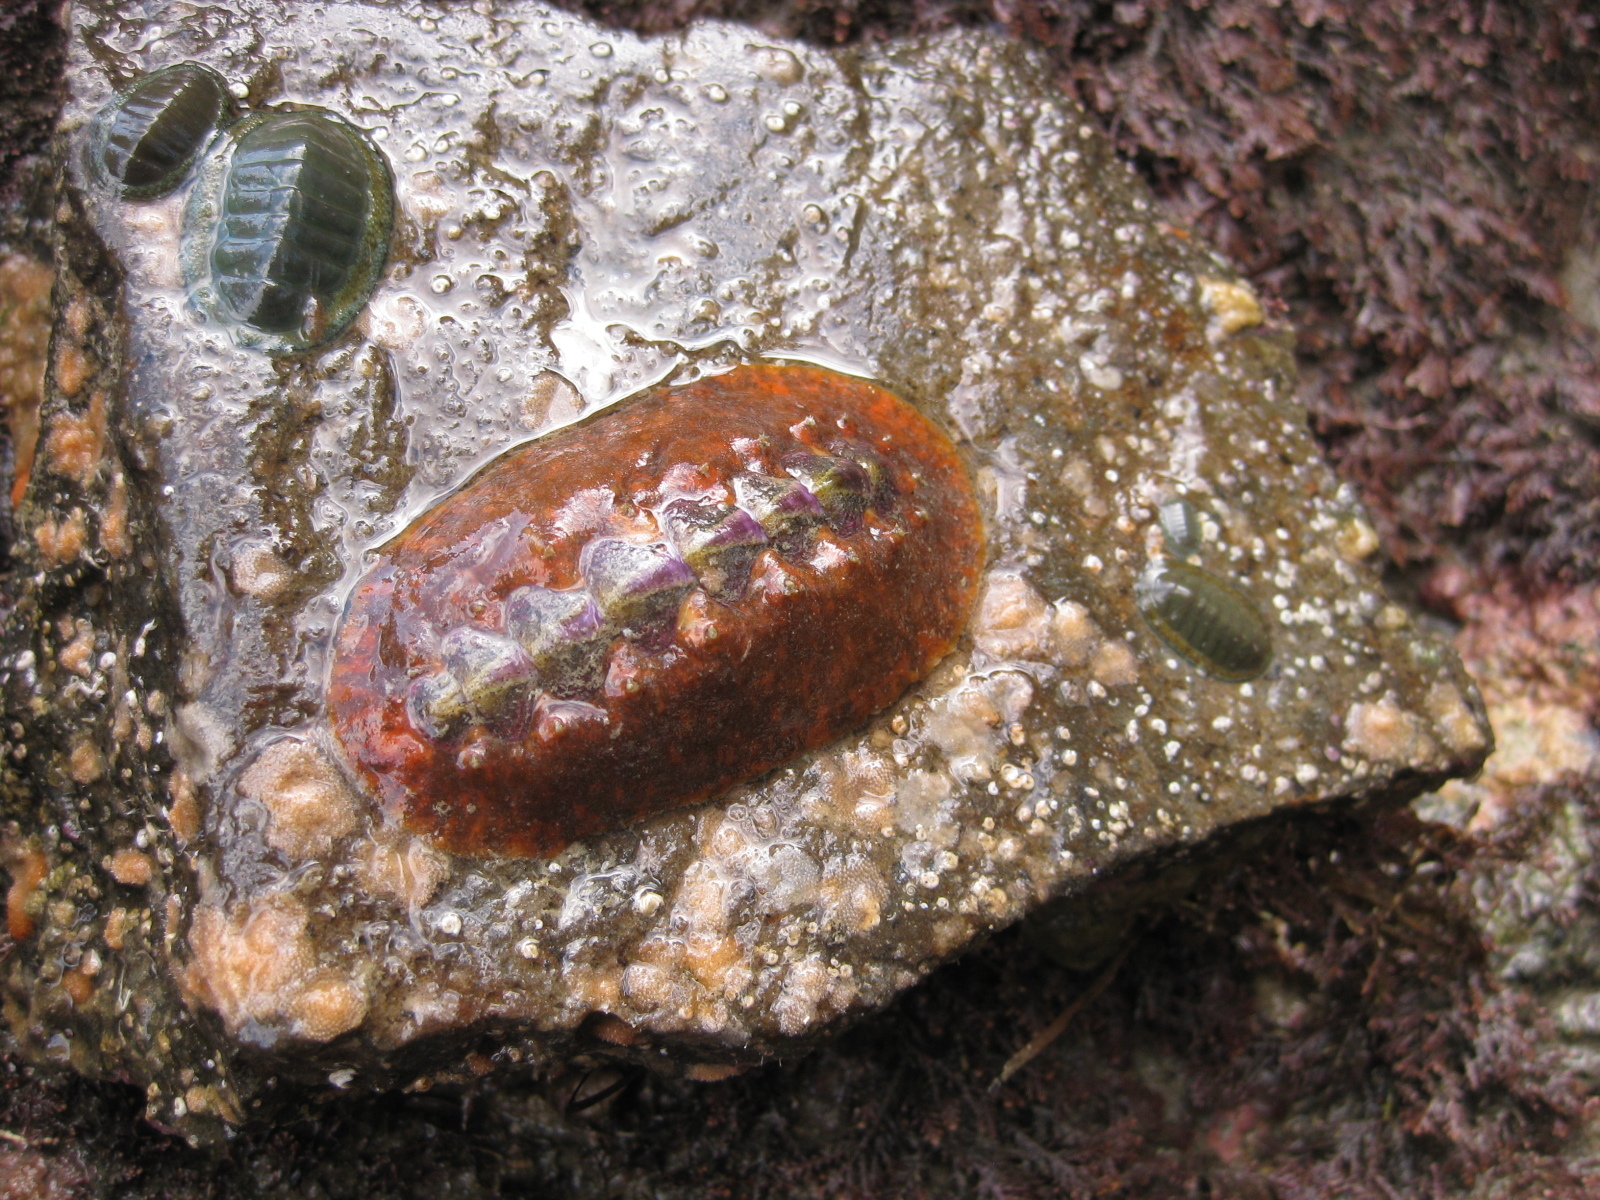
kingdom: Animalia
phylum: Mollusca
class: Polyplacophora
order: Chitonida
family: Chitonidae
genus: Chiton
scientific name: Chiton glaucus
